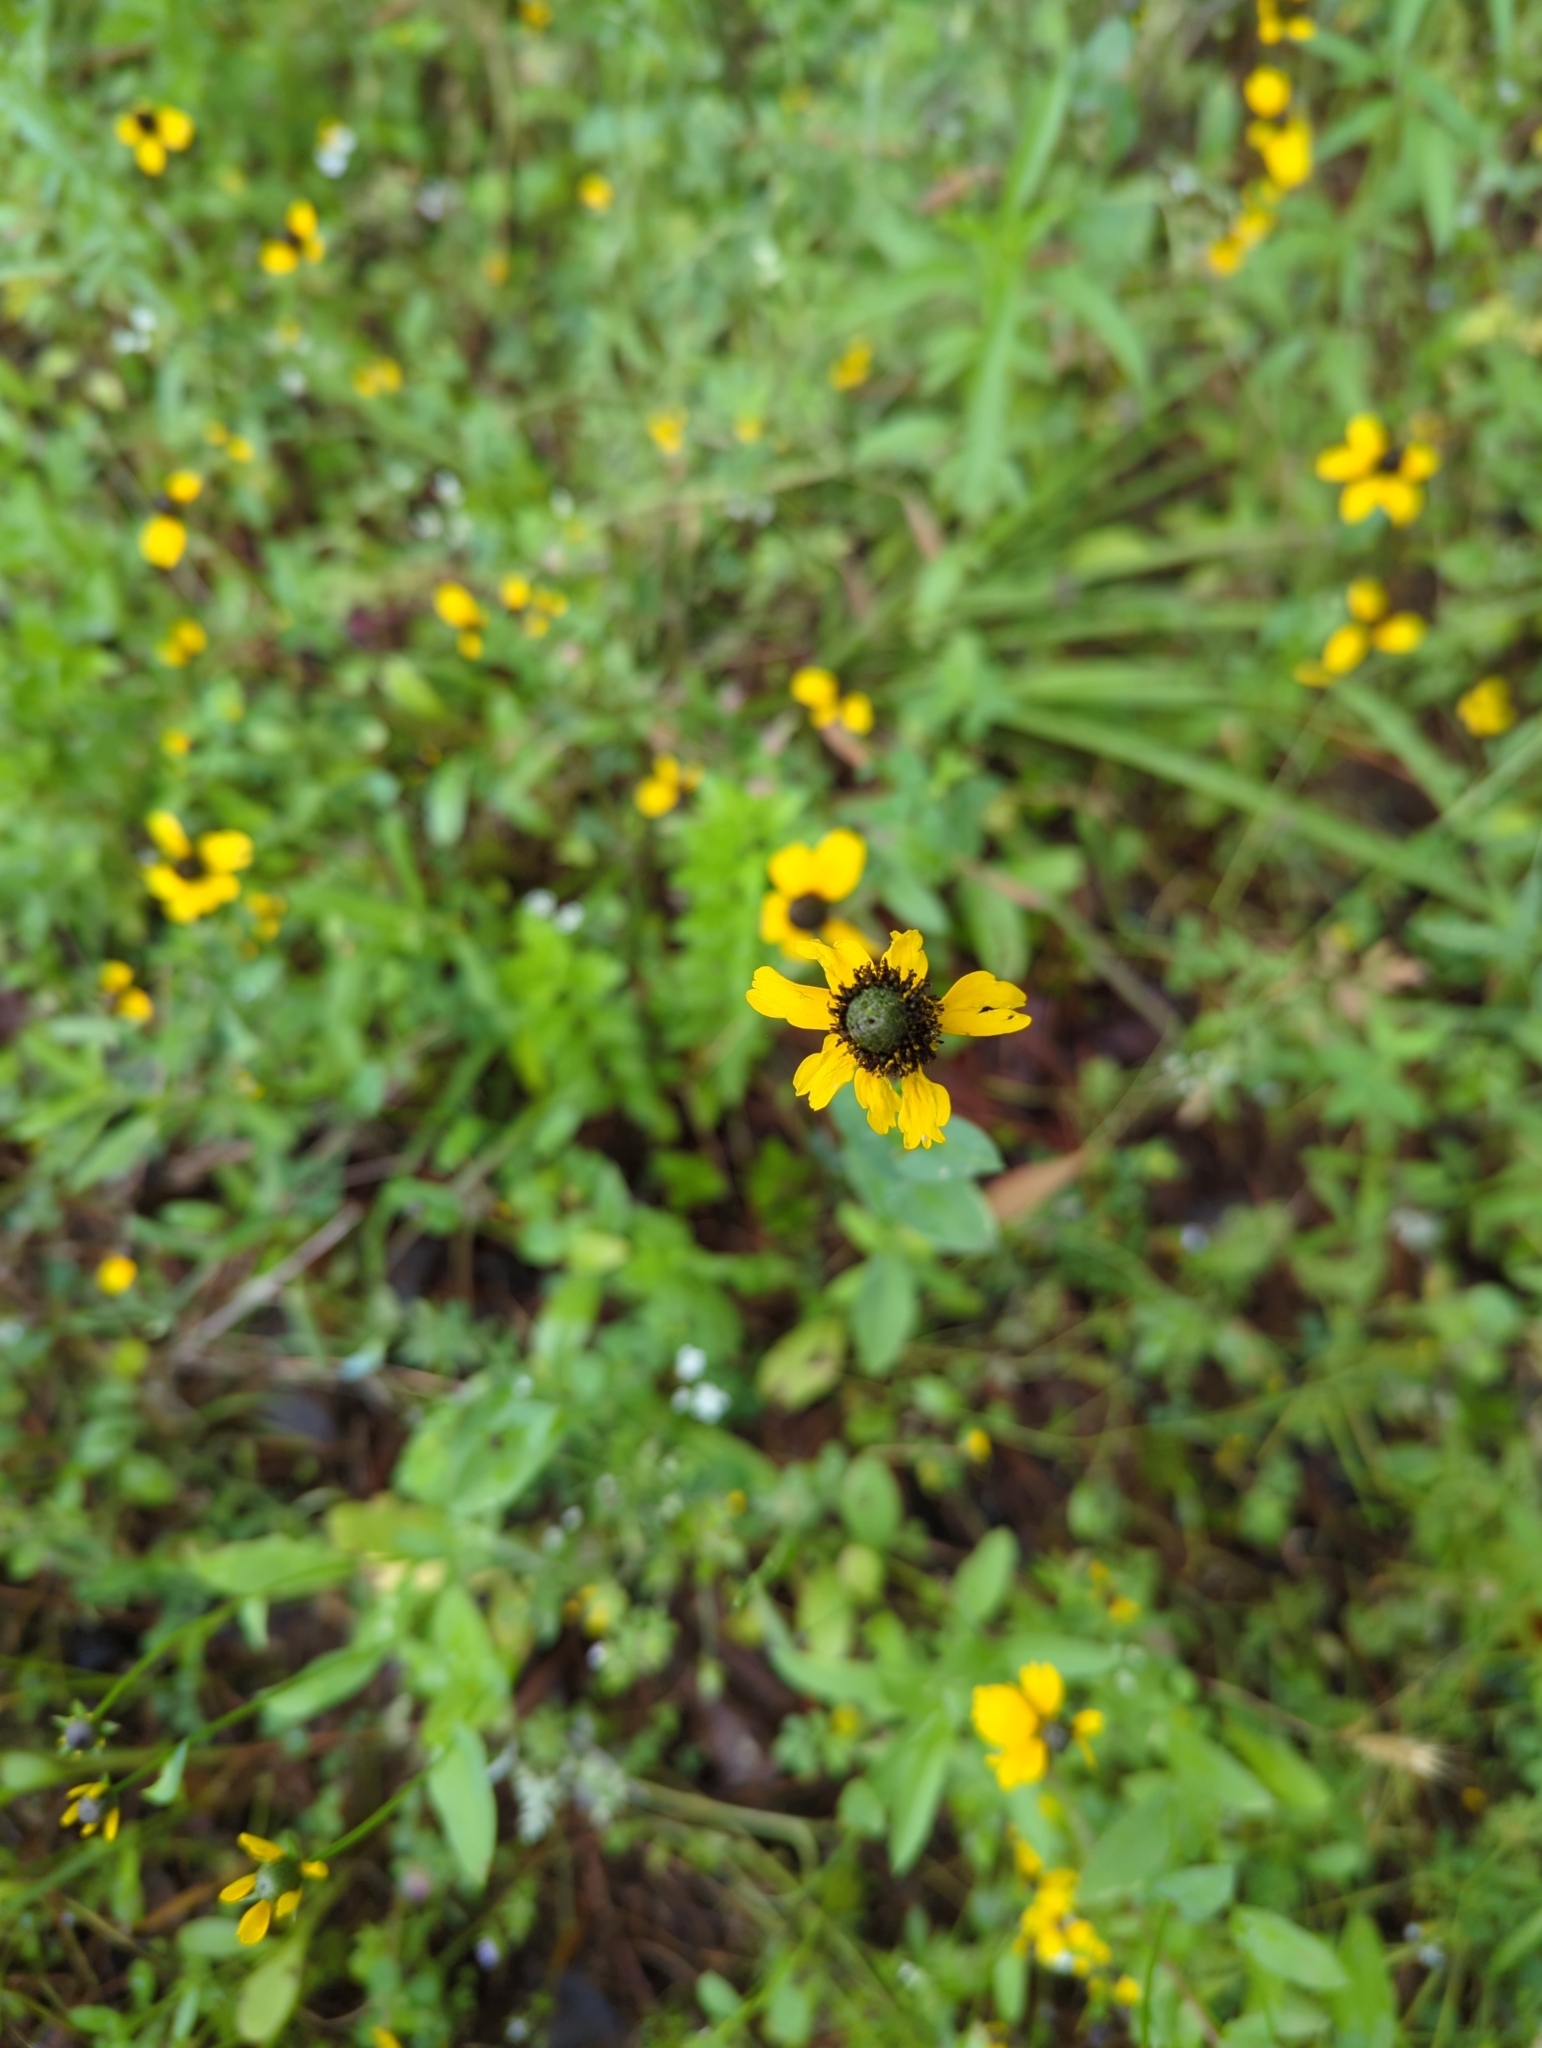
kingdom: Plantae
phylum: Tracheophyta
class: Magnoliopsida
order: Asterales
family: Asteraceae
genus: Rudbeckia
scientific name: Rudbeckia amplexicaulis
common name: Clasping-leaf coneflower
